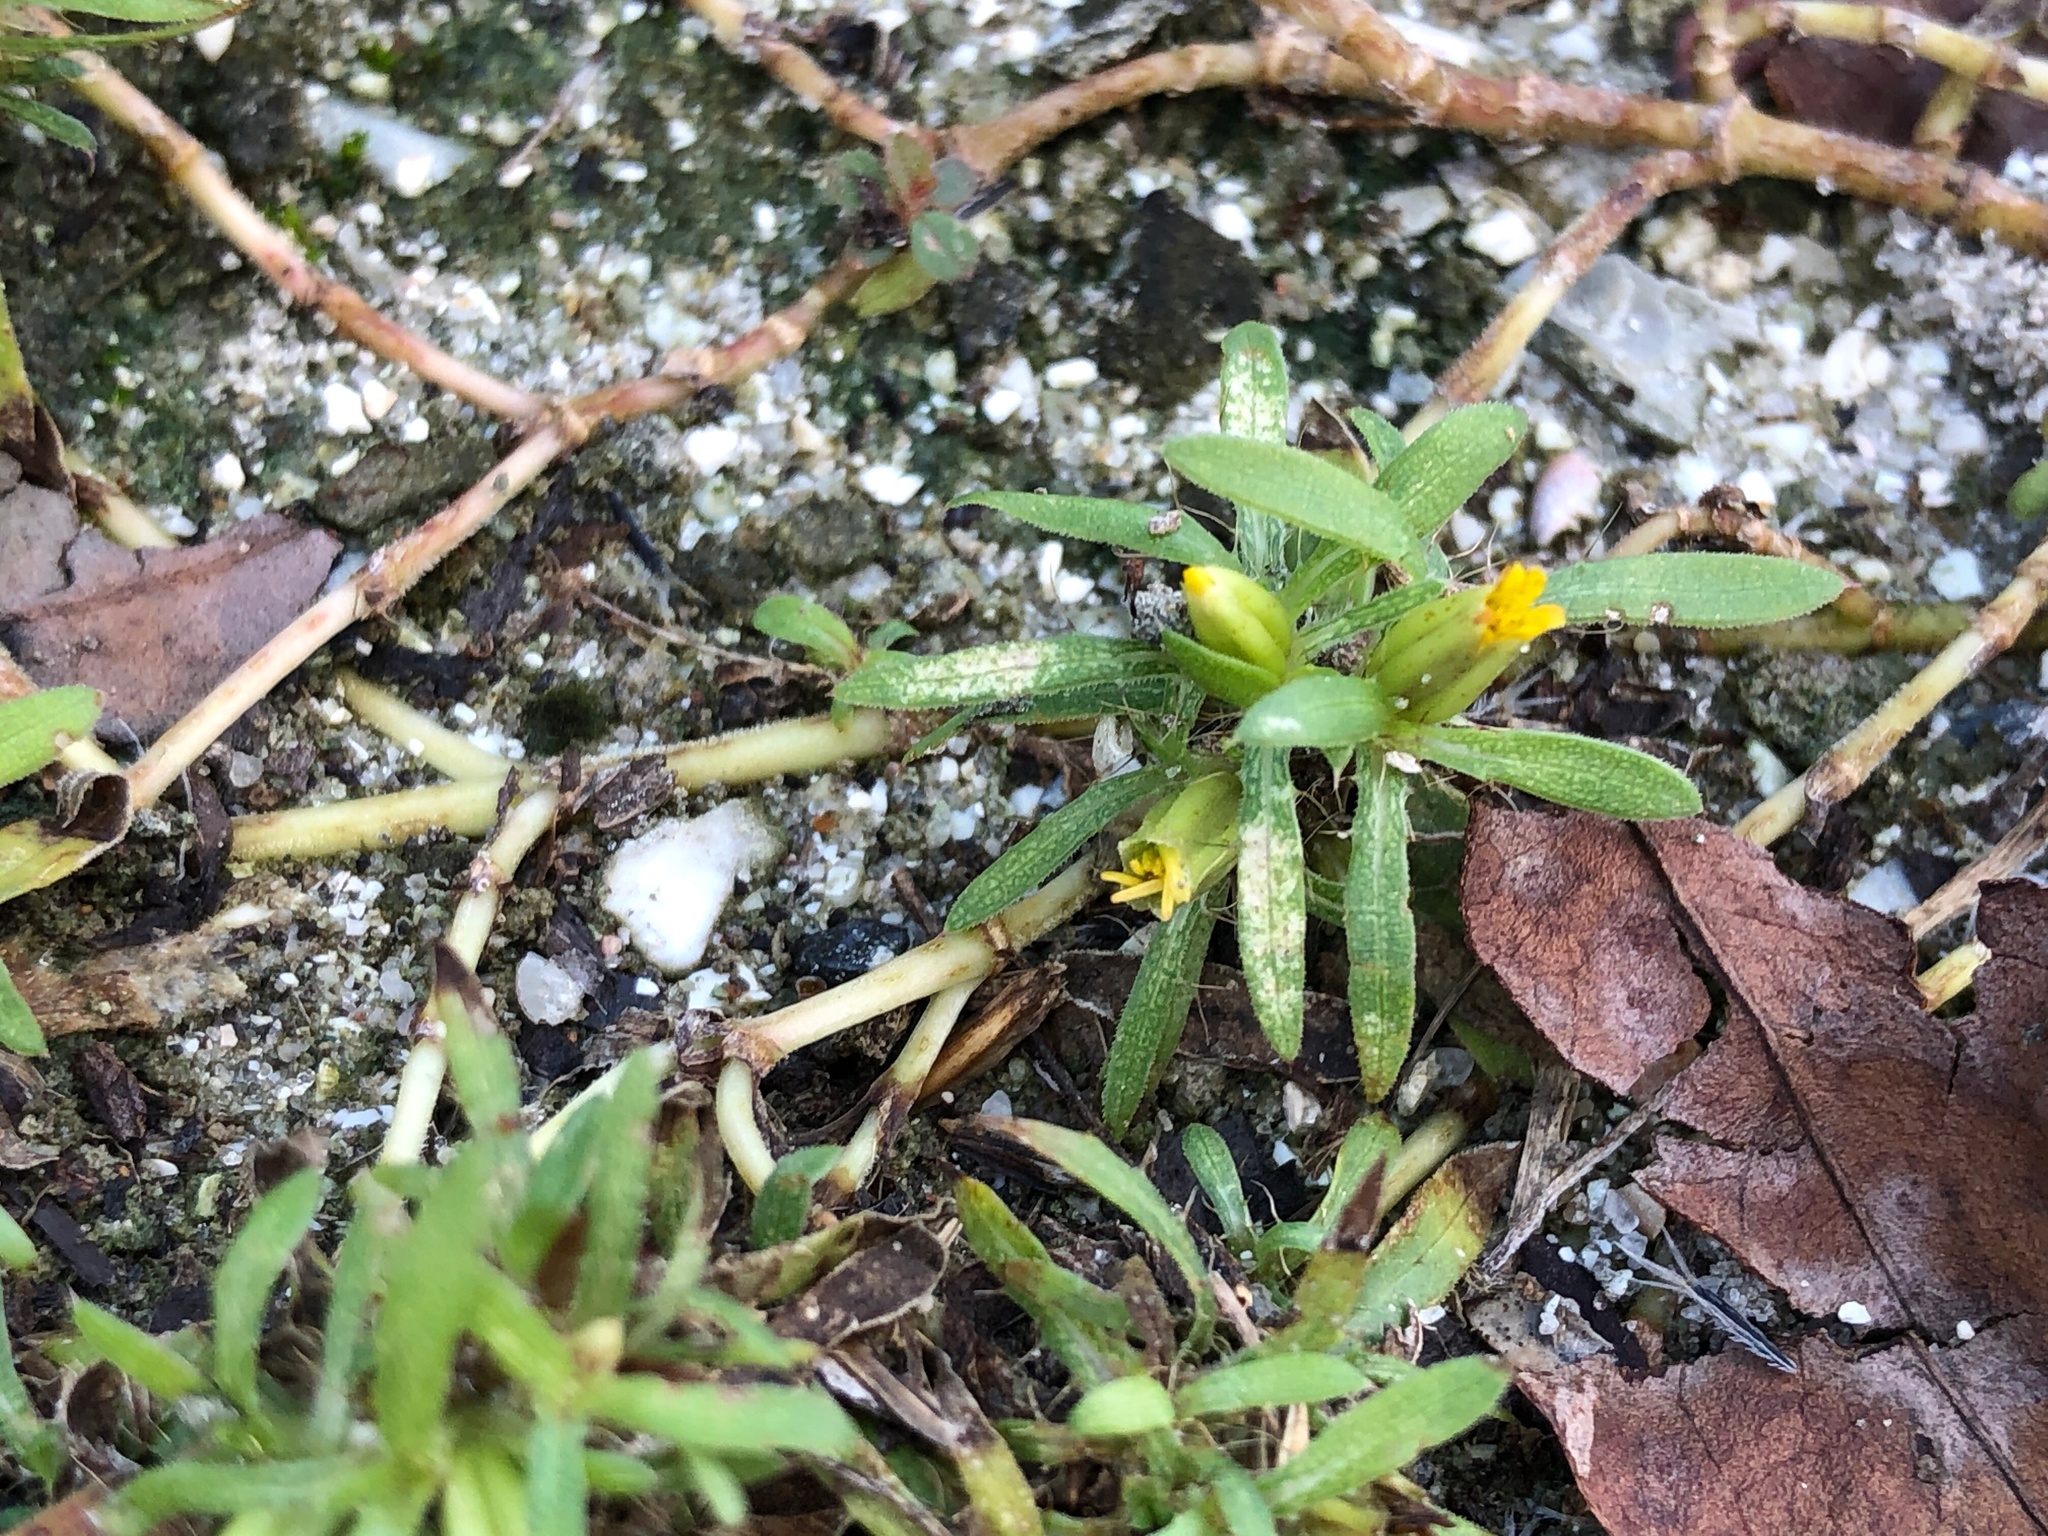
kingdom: Plantae
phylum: Tracheophyta
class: Magnoliopsida
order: Asterales
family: Asteraceae
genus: Pectis
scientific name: Pectis prostrata
